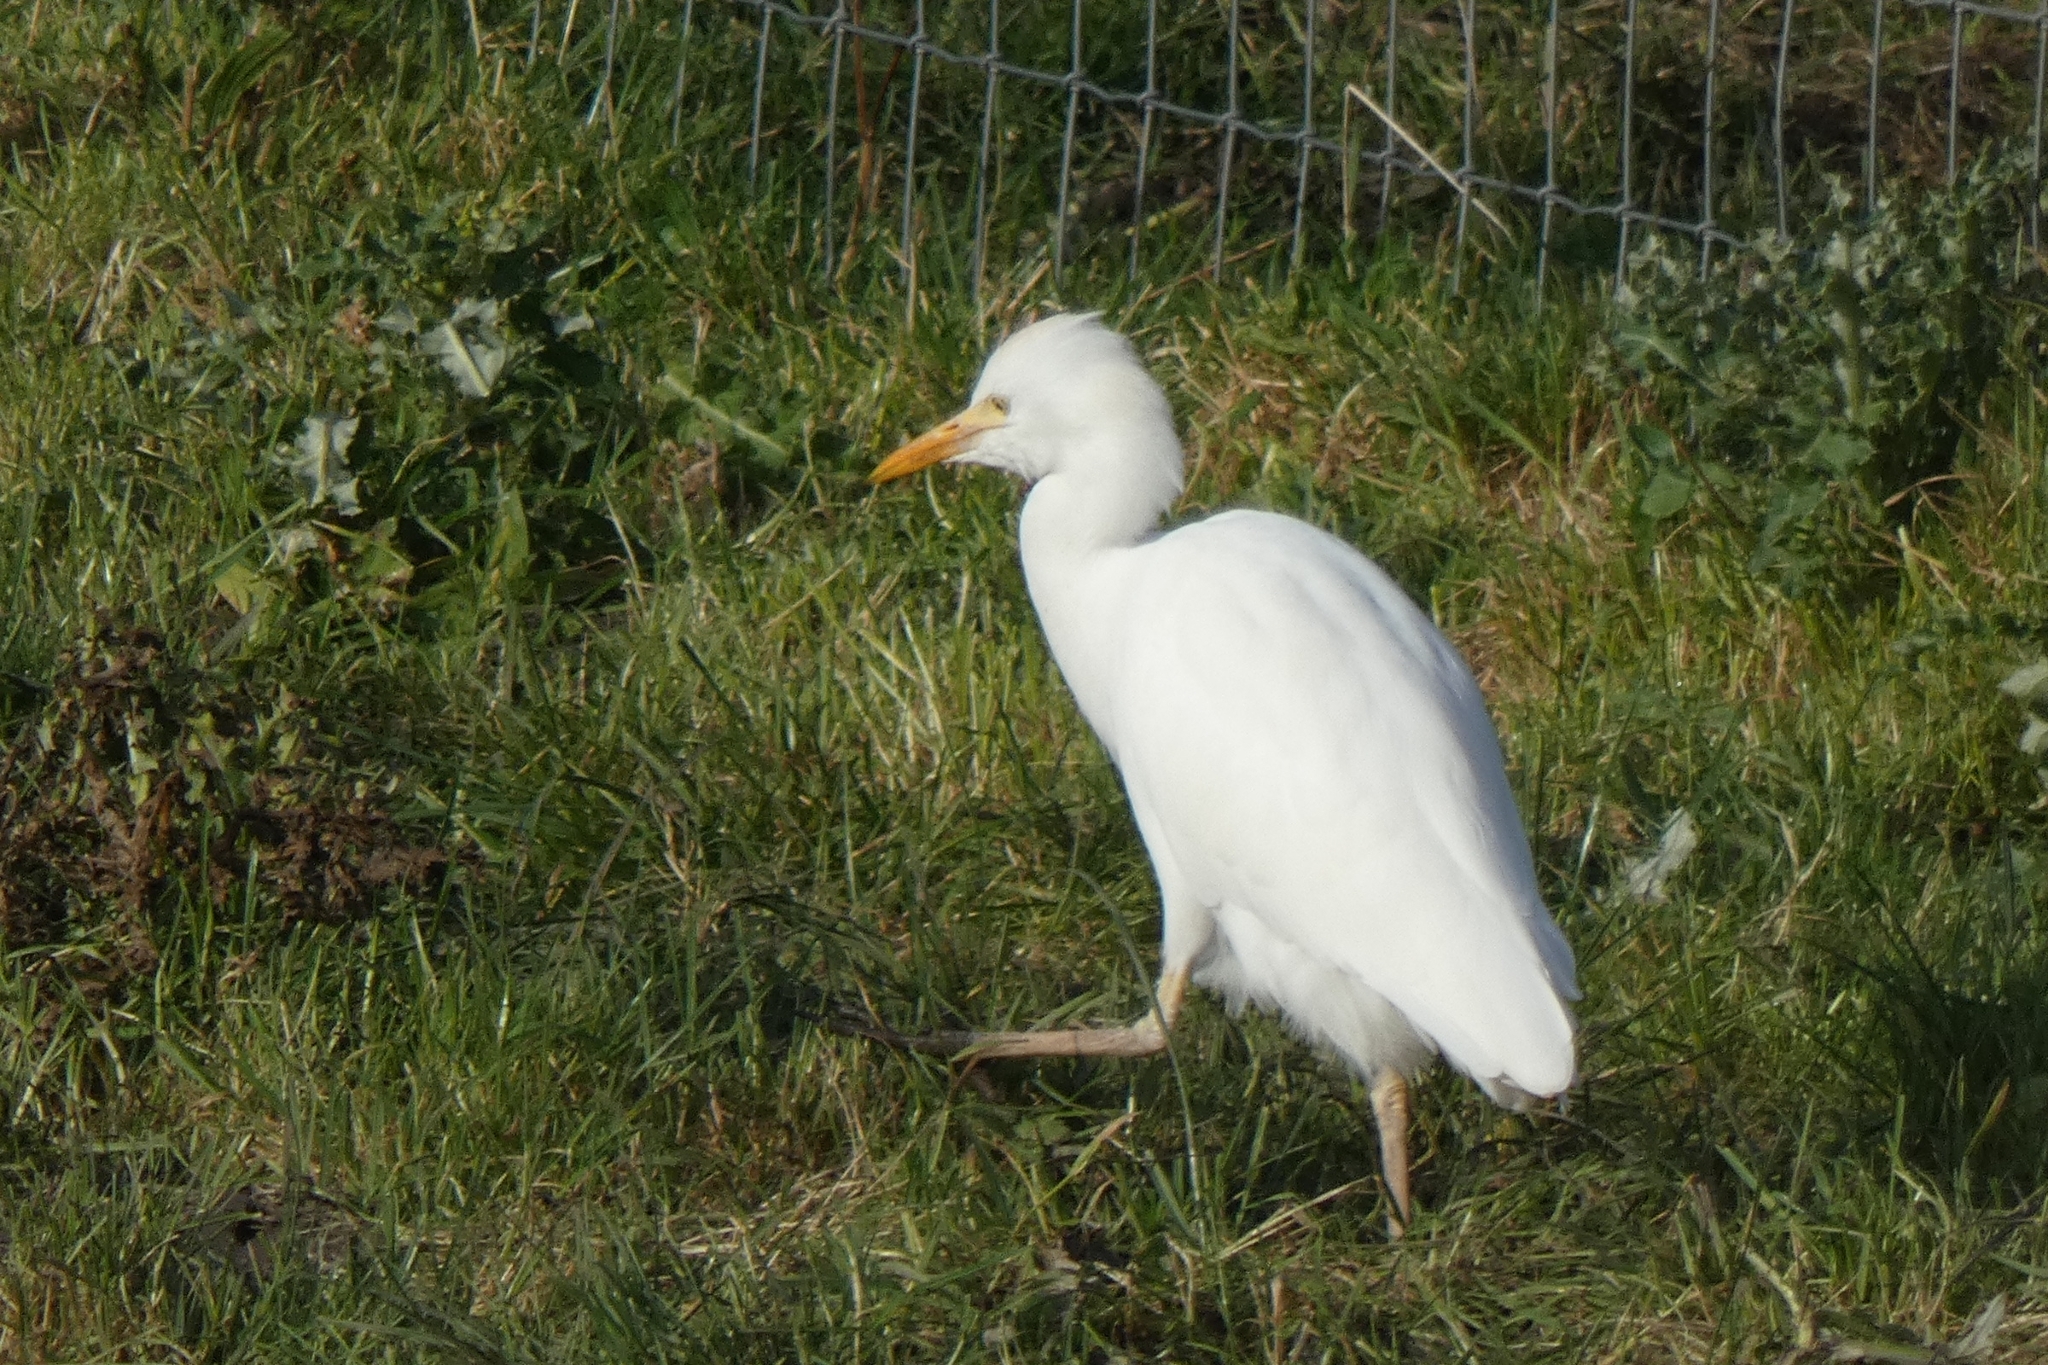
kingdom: Animalia
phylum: Chordata
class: Aves
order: Pelecaniformes
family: Ardeidae
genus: Bubulcus
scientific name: Bubulcus ibis
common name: Cattle egret
